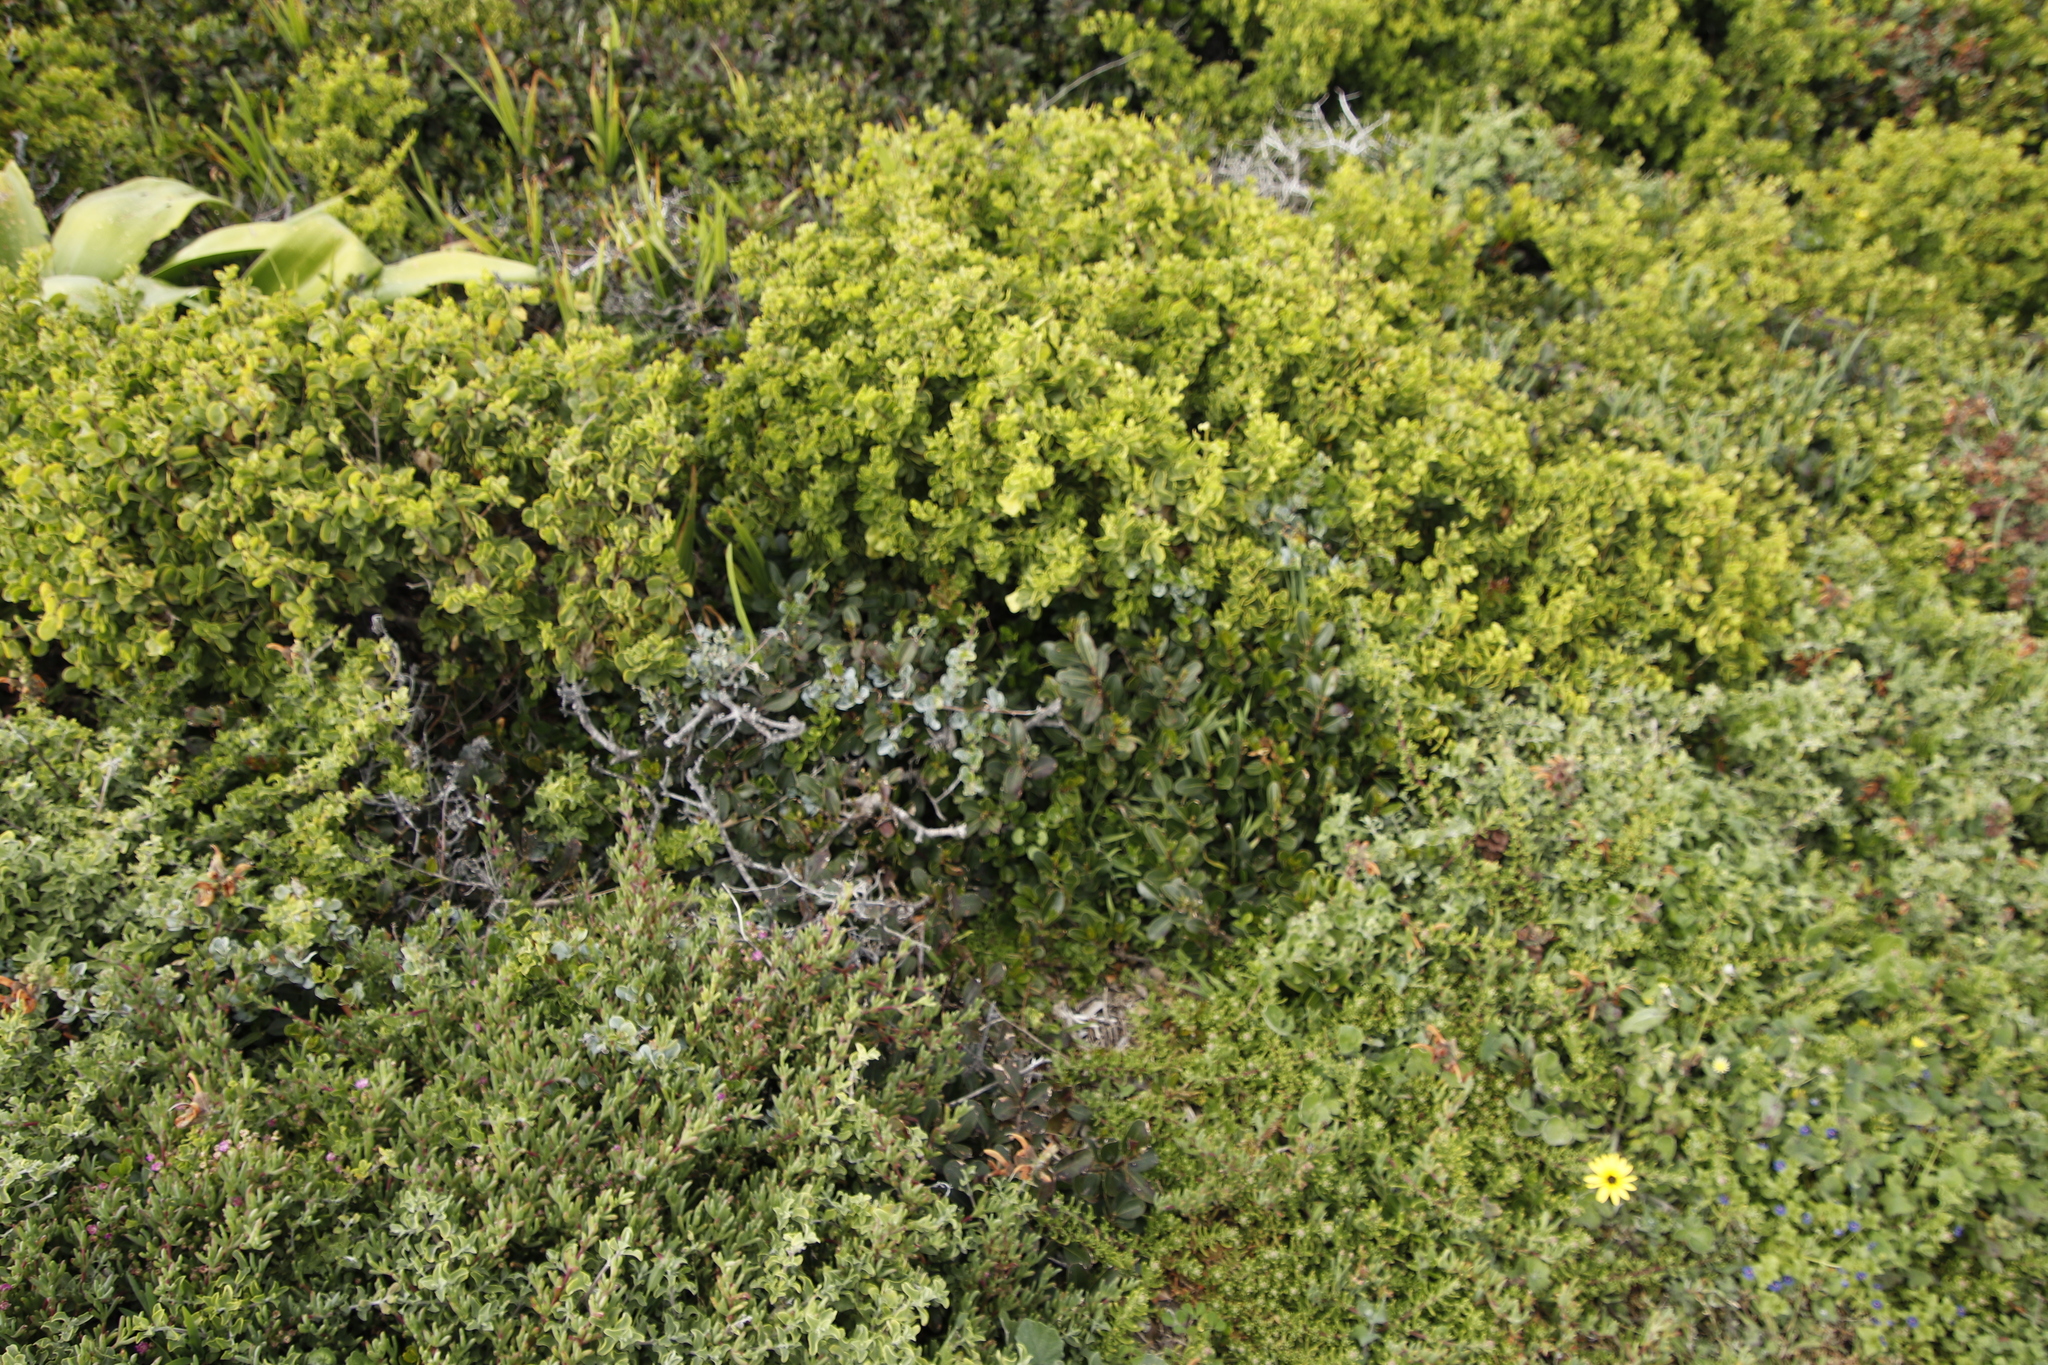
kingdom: Plantae
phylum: Tracheophyta
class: Magnoliopsida
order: Ericales
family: Sapotaceae
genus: Sideroxylon
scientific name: Sideroxylon inerme
